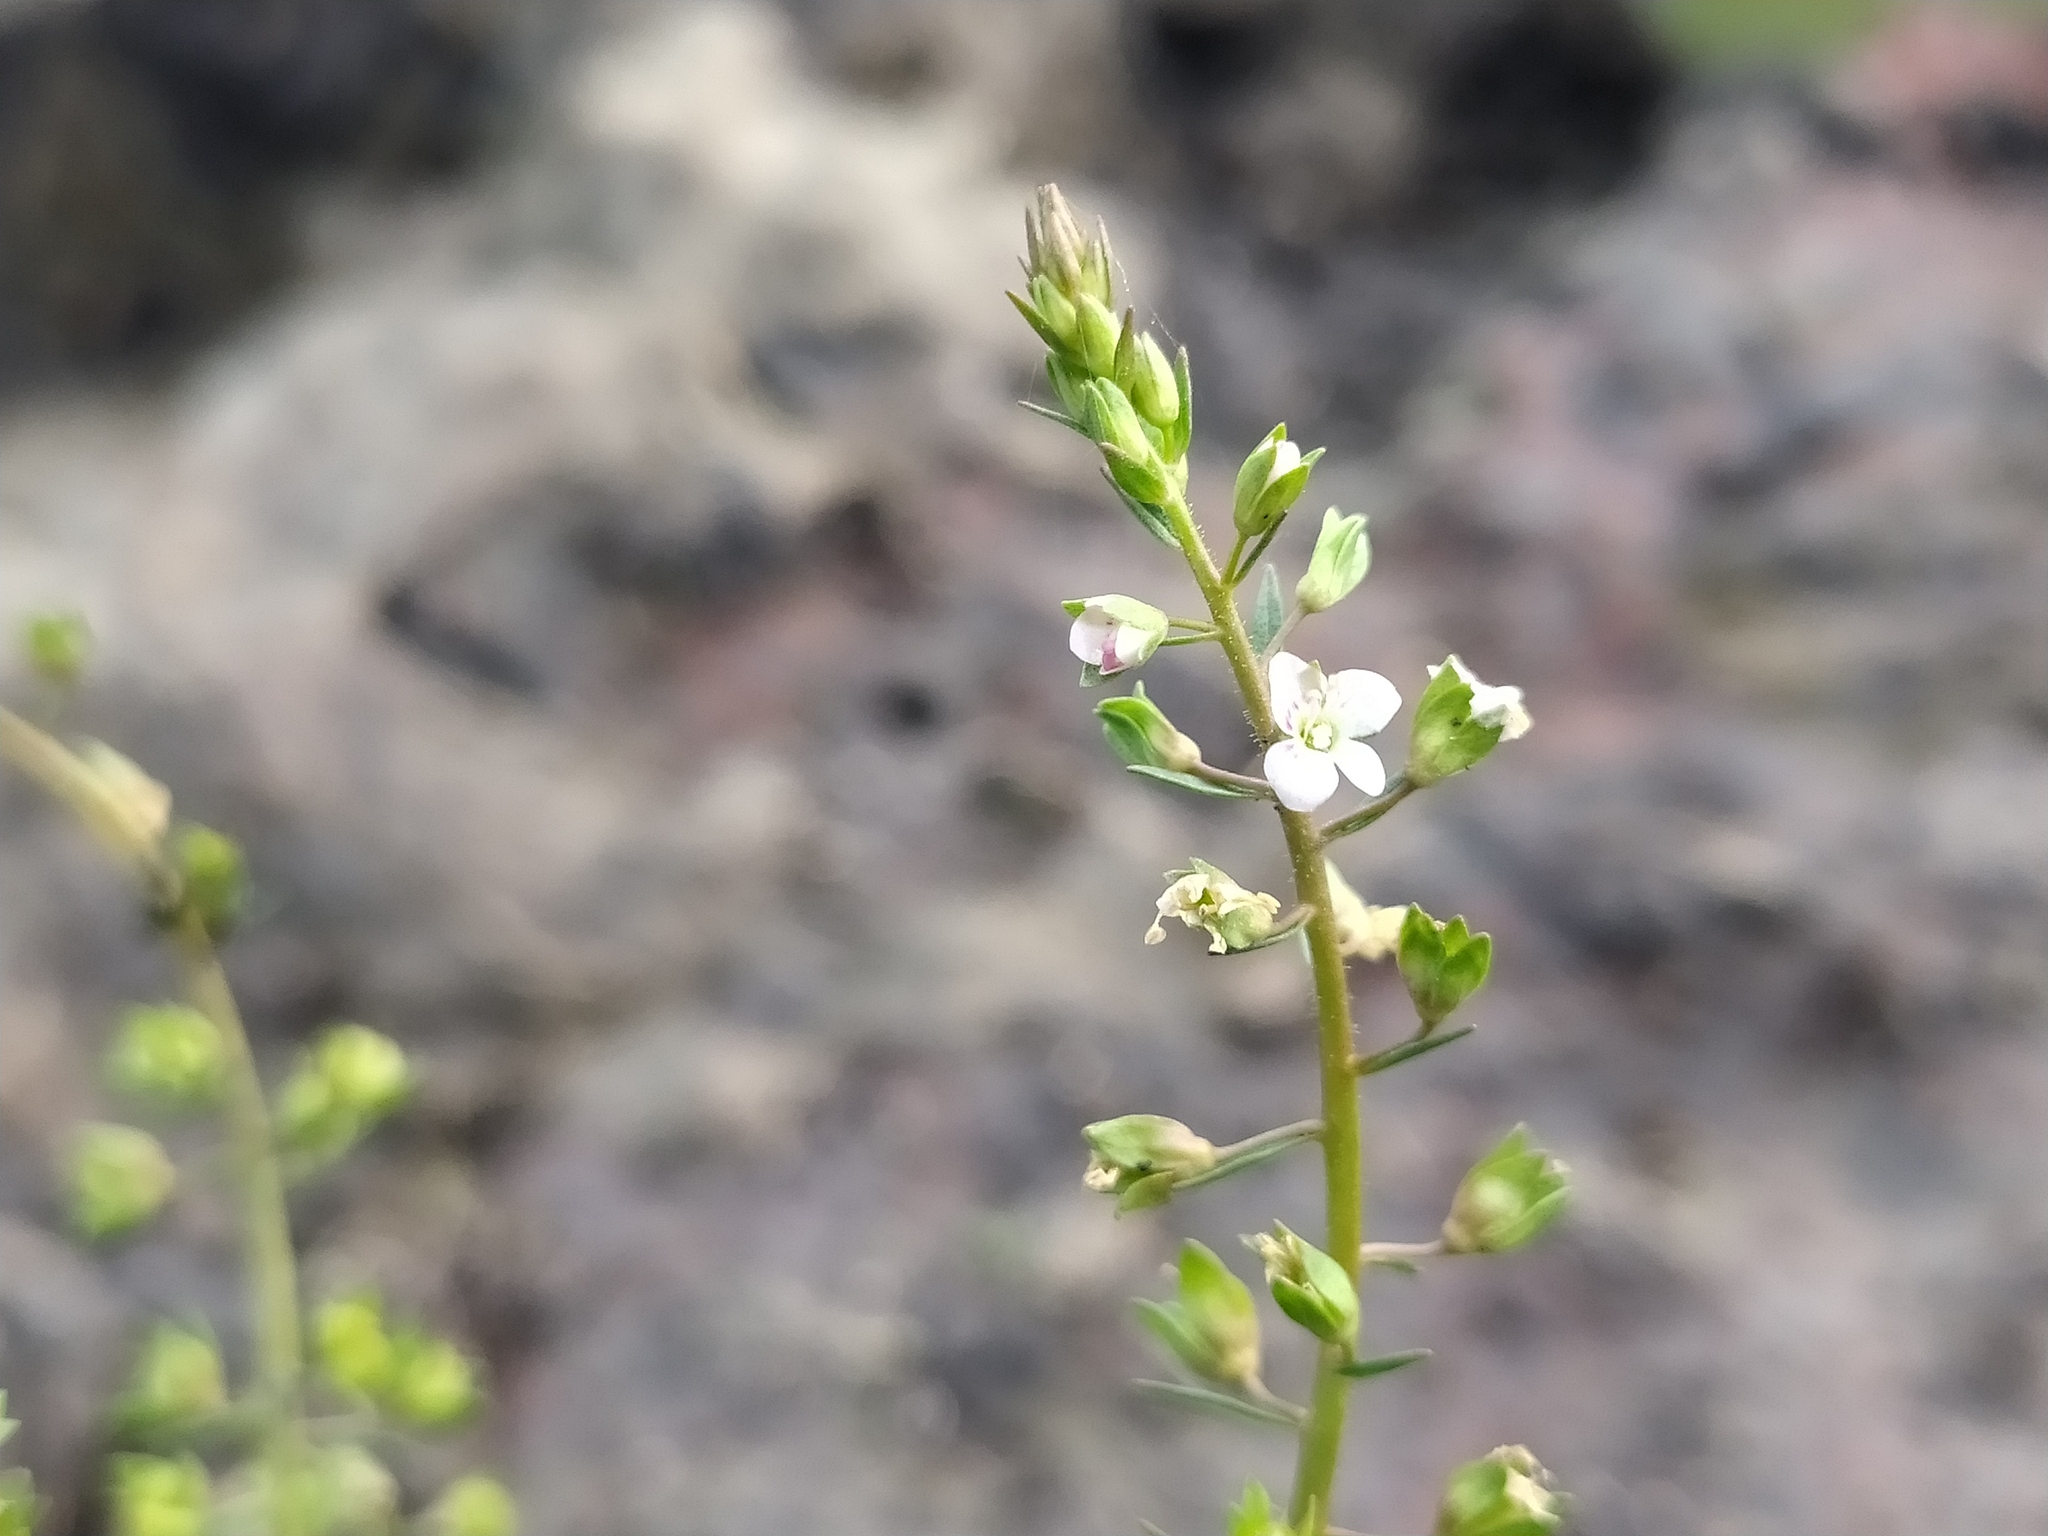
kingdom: Plantae
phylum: Tracheophyta
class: Magnoliopsida
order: Lamiales
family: Plantaginaceae
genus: Veronica
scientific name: Veronica catenata
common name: Pink water-speedwell
